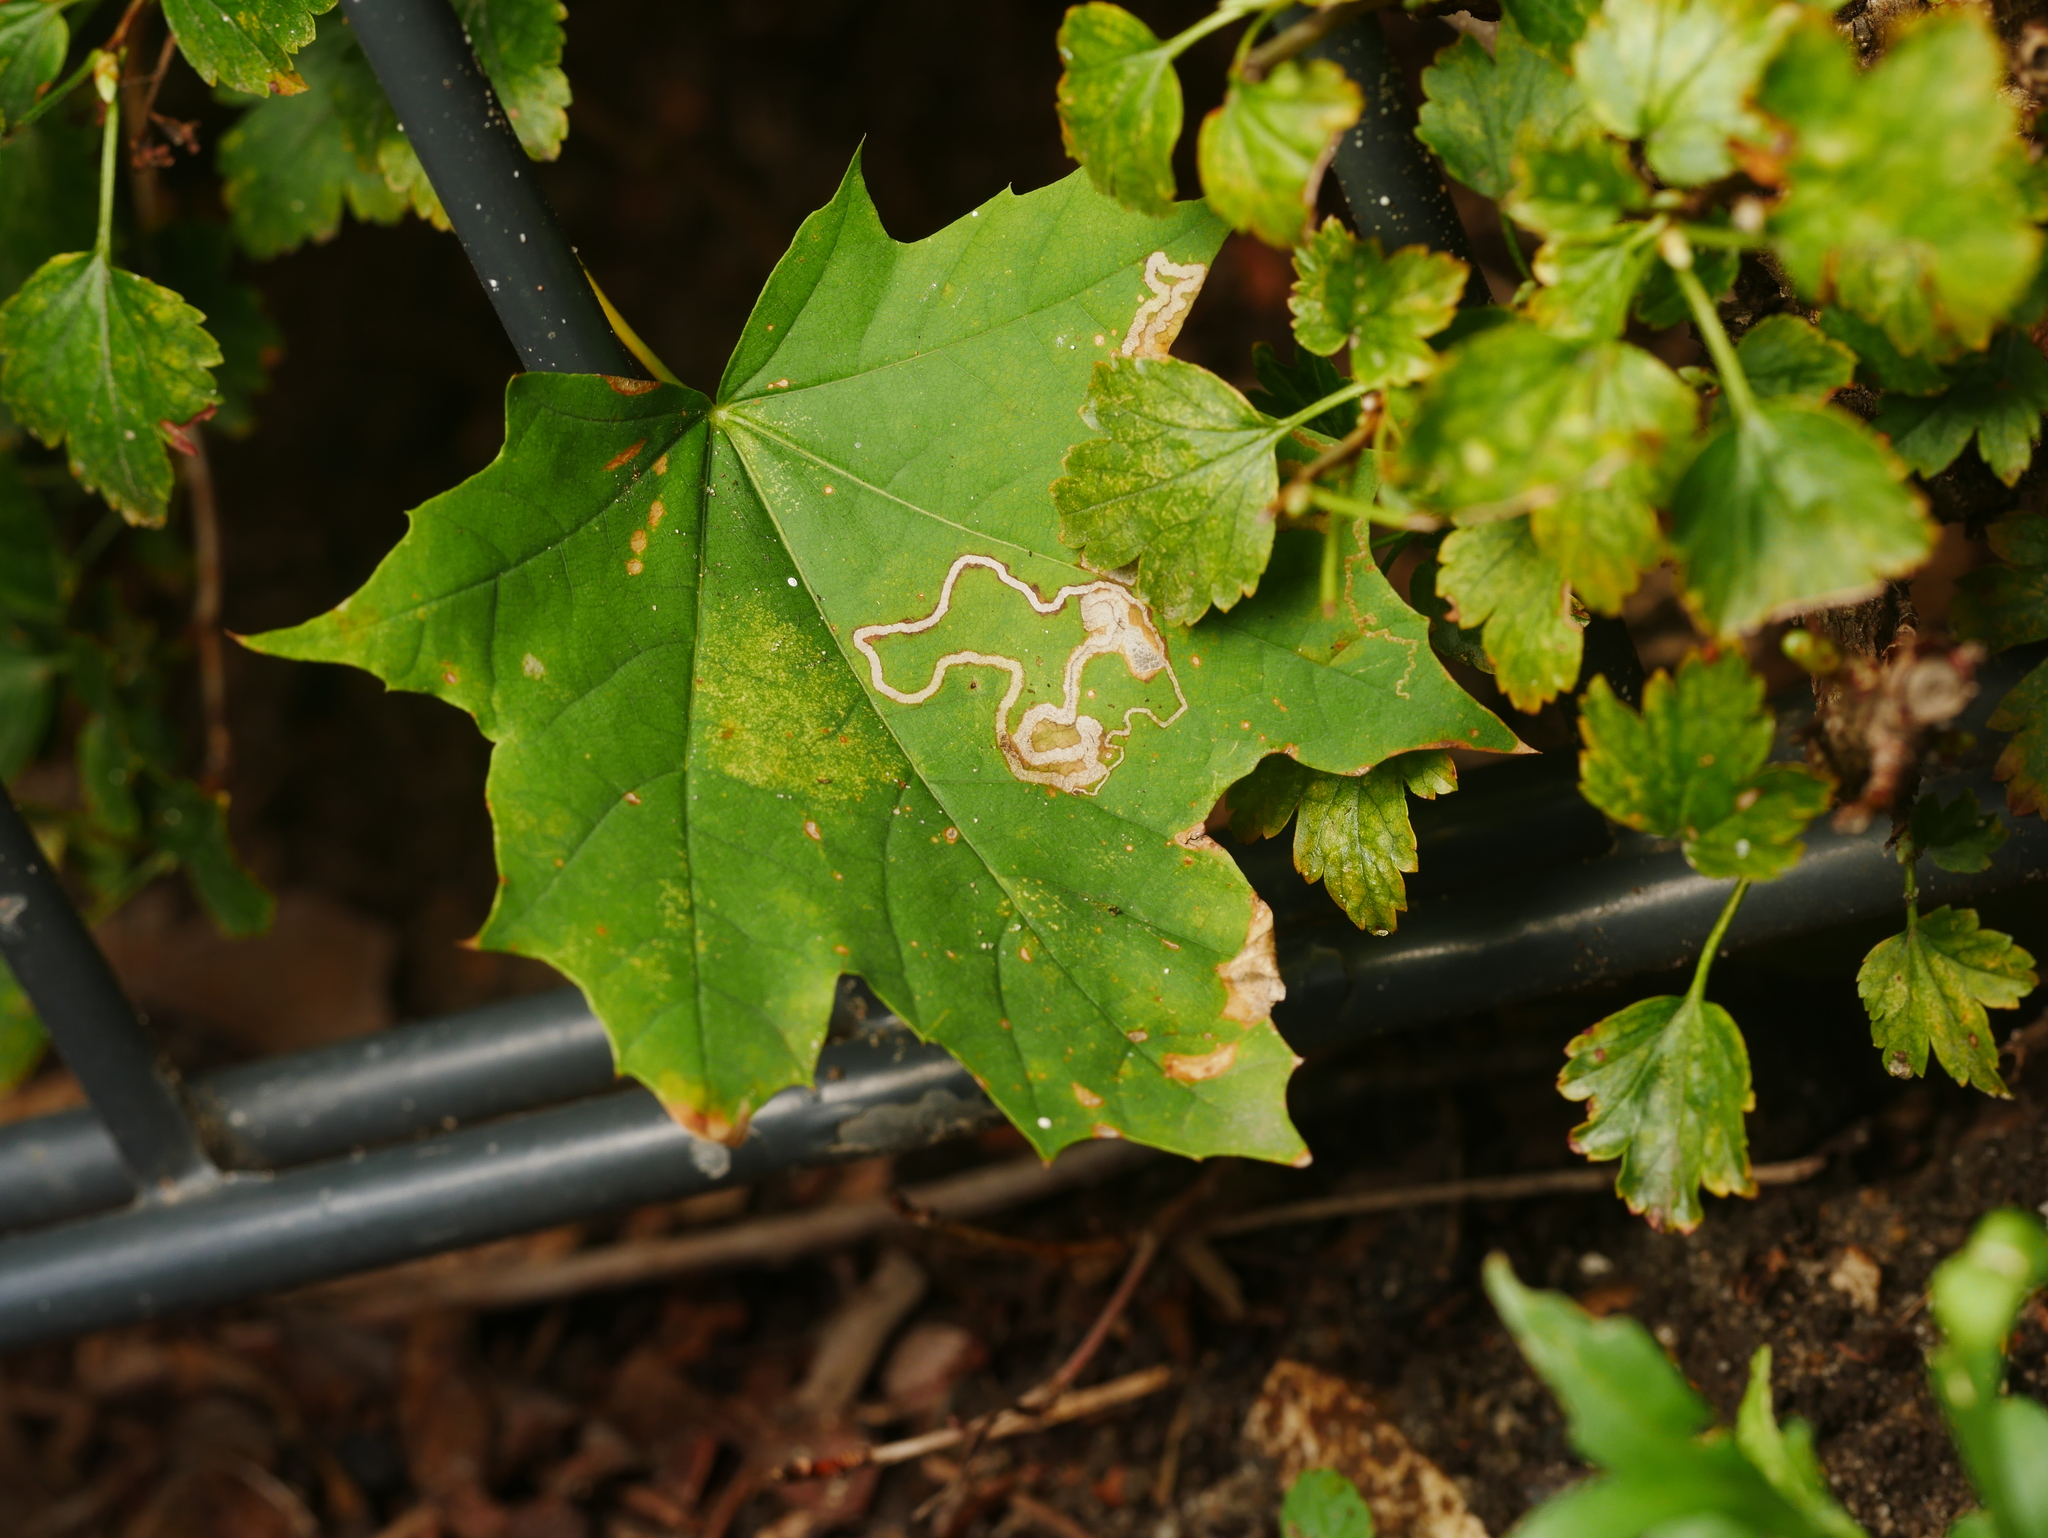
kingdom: Plantae
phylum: Tracheophyta
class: Magnoliopsida
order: Sapindales
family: Sapindaceae
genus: Acer
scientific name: Acer platanoides
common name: Norway maple
